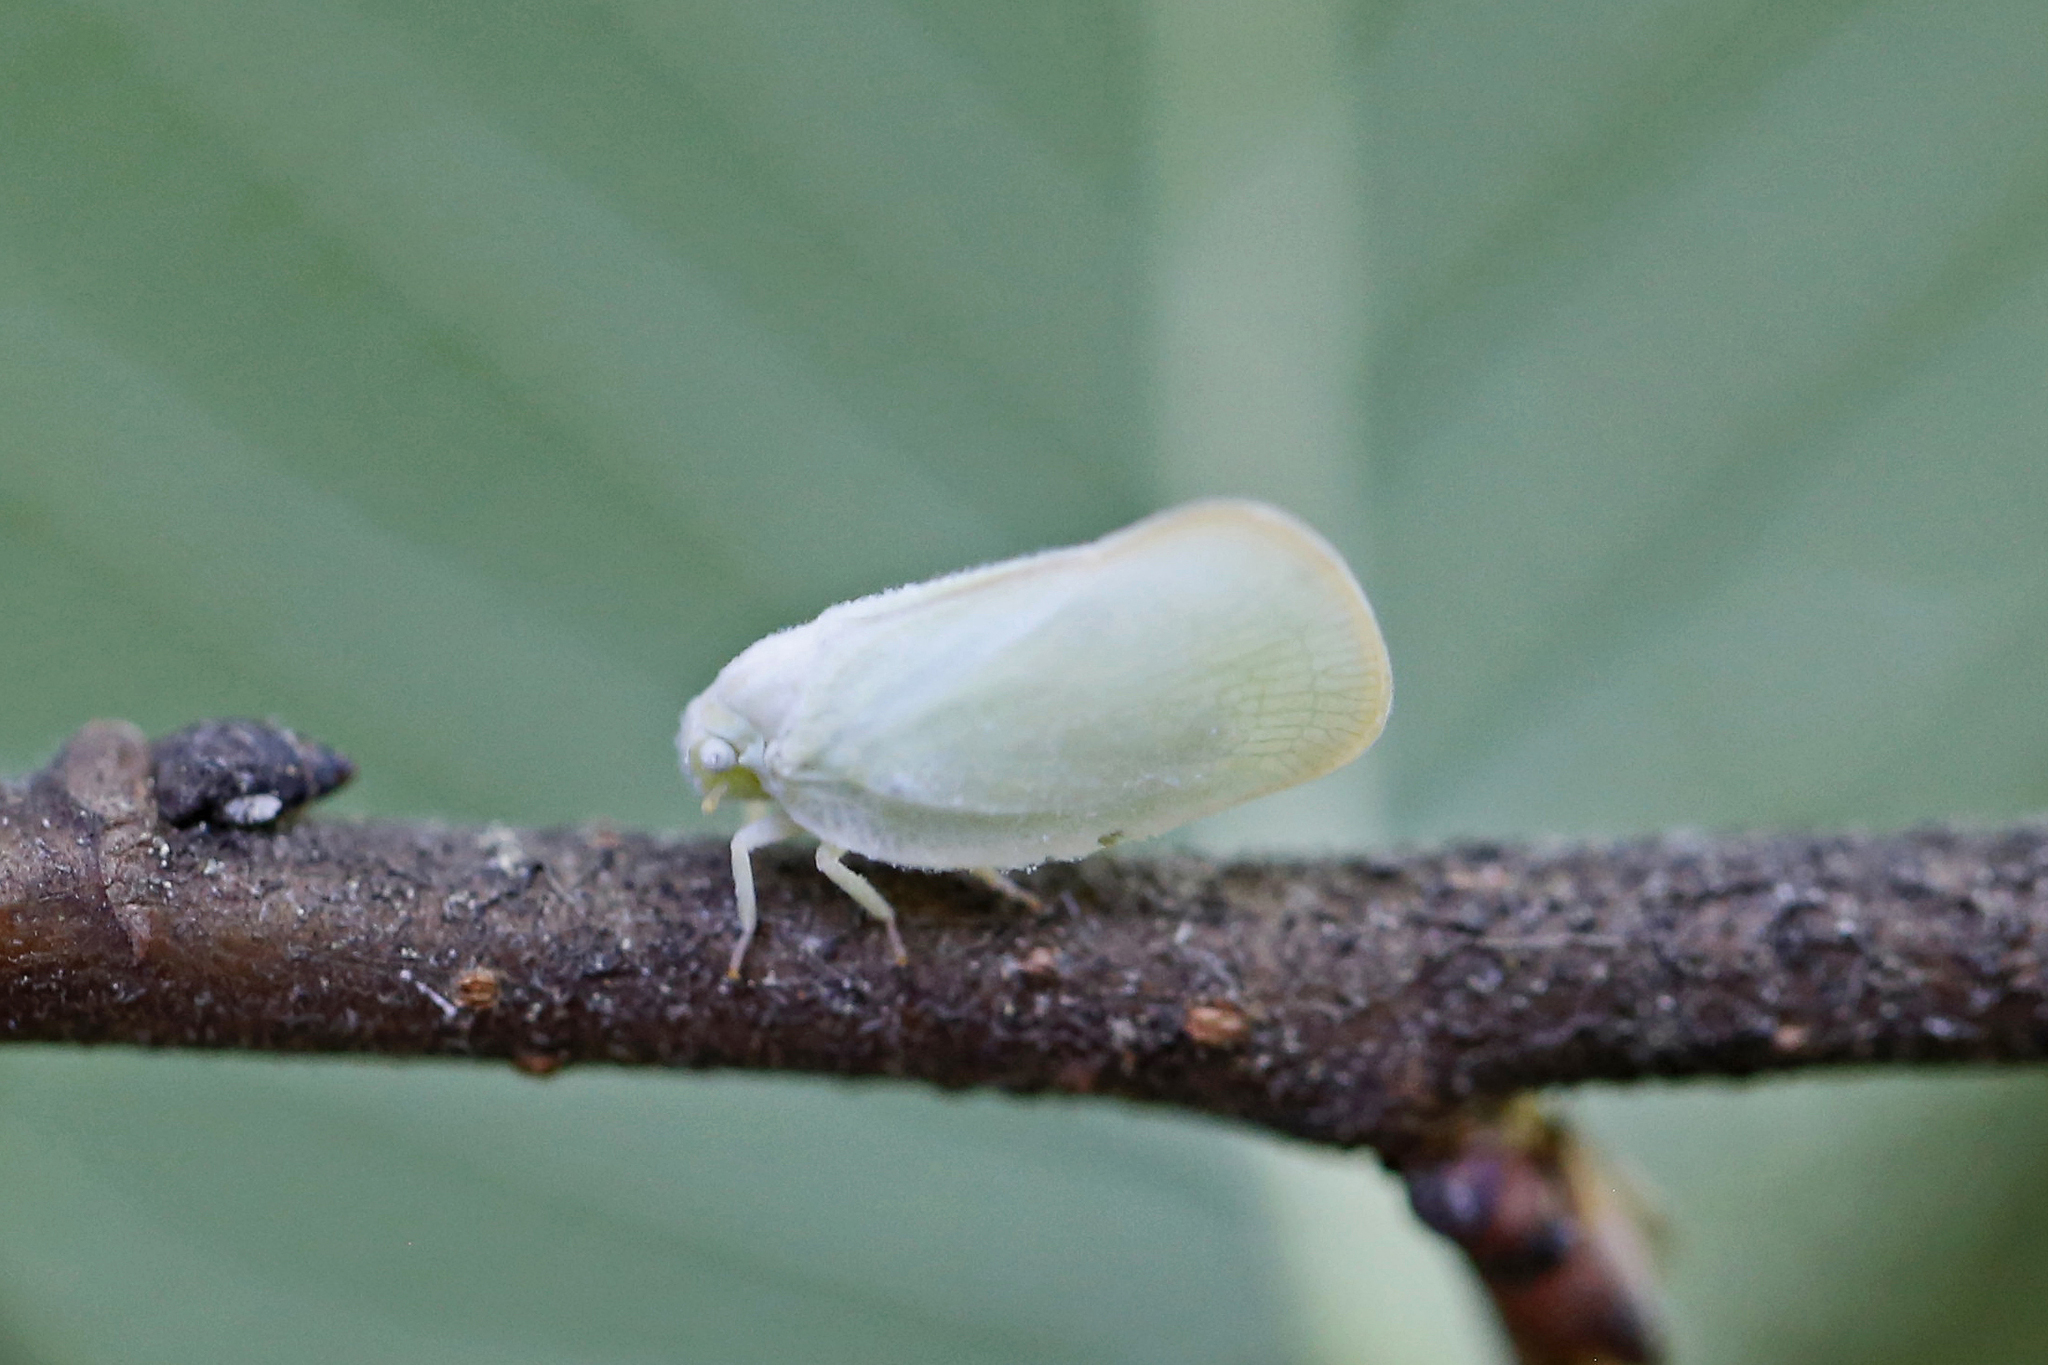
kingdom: Animalia
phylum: Arthropoda
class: Insecta
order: Hemiptera
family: Flatidae
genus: Ormenoides
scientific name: Ormenoides venusta
